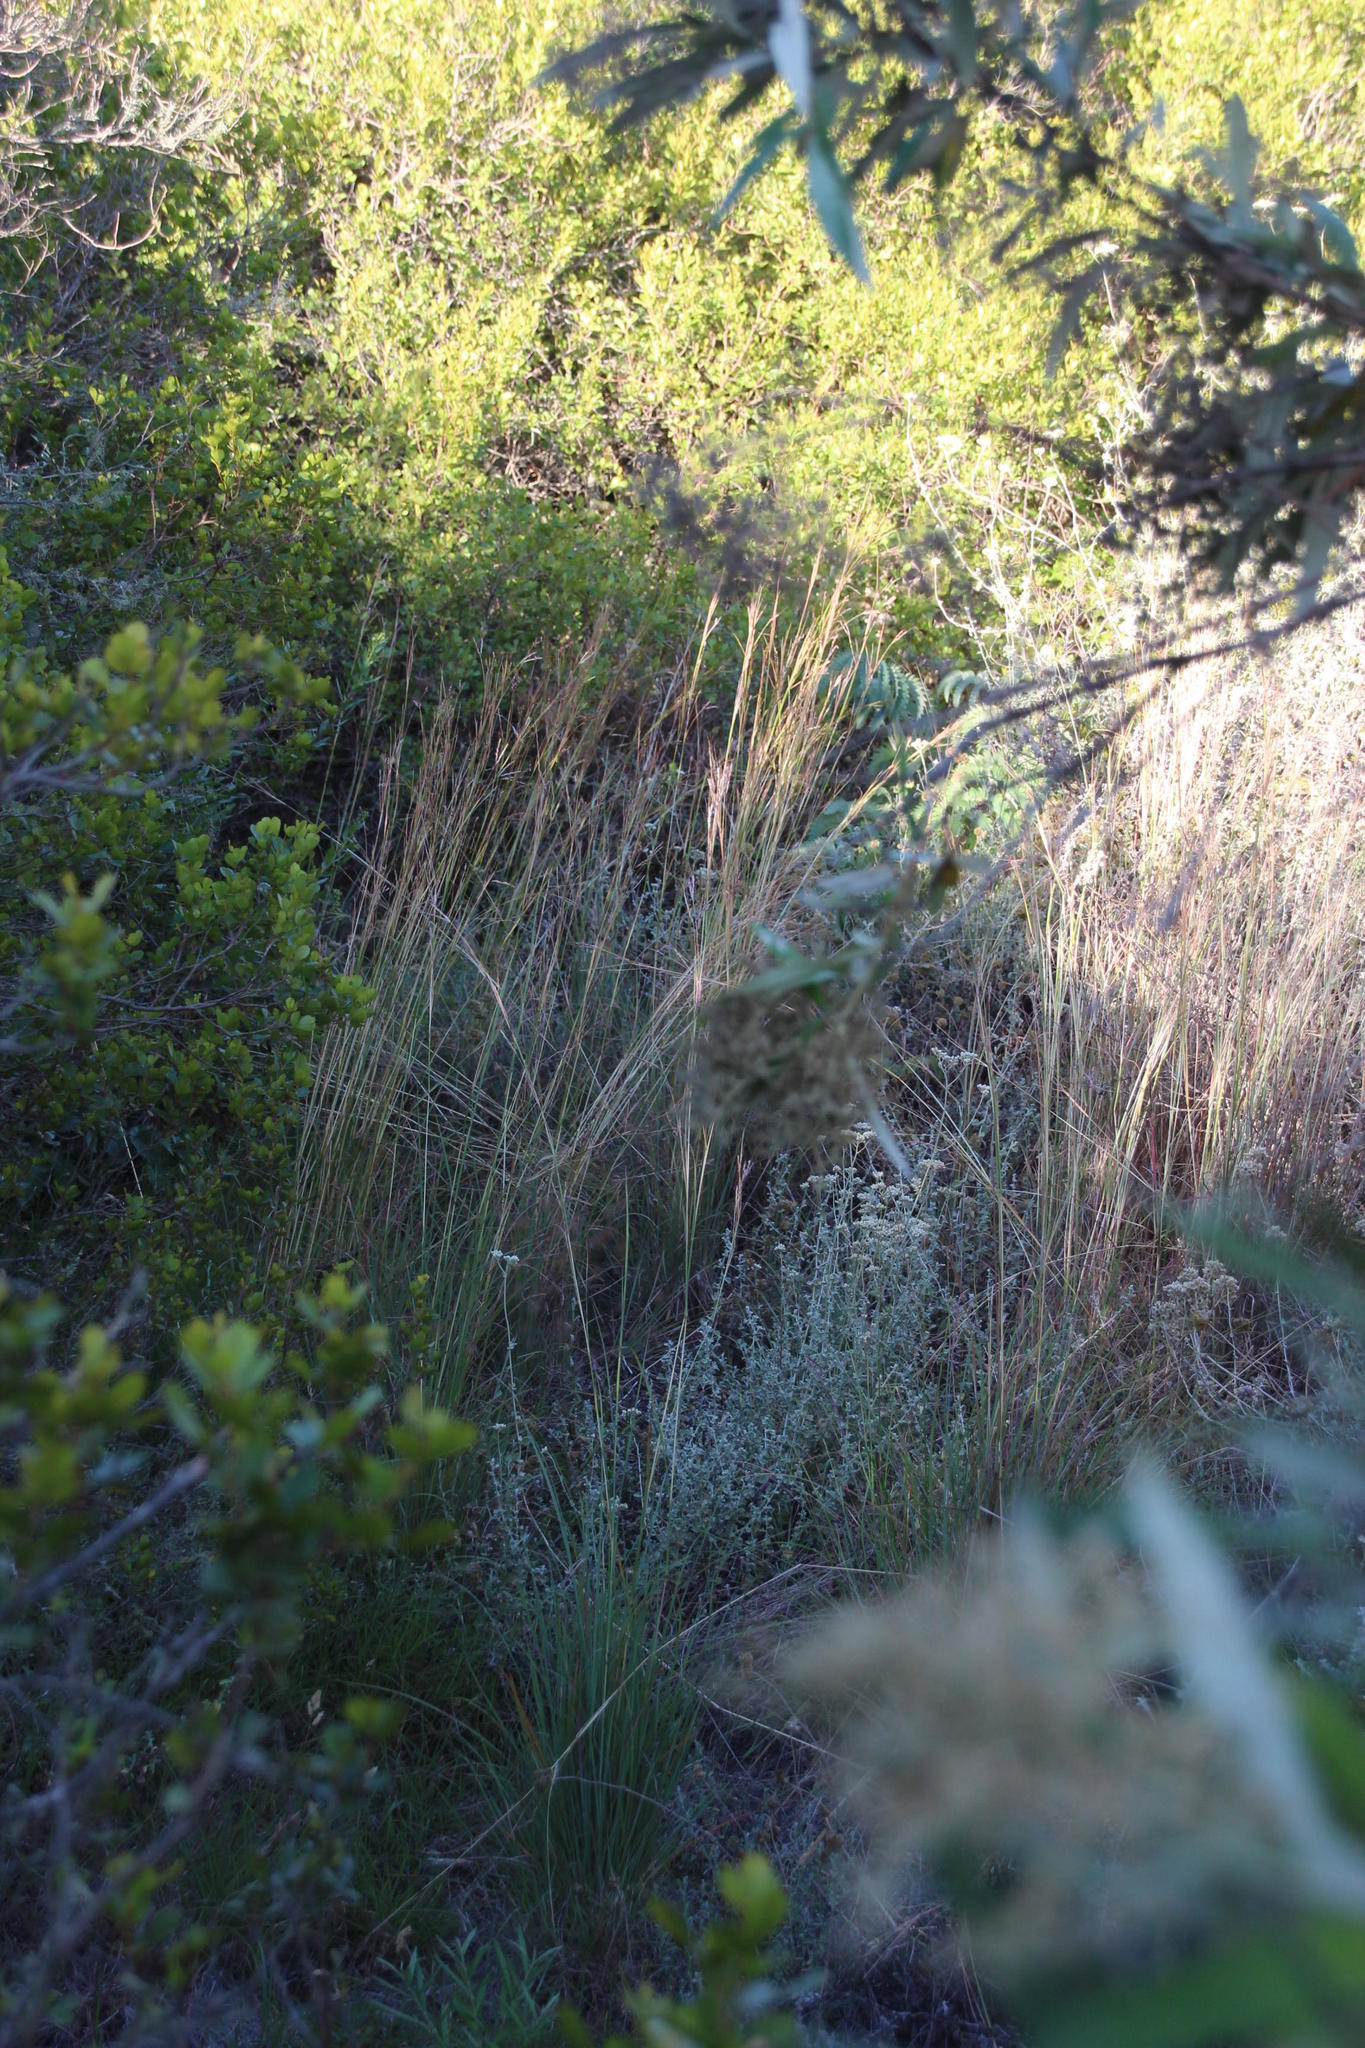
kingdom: Plantae
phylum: Tracheophyta
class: Liliopsida
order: Poales
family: Poaceae
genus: Hyparrhenia
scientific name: Hyparrhenia hirta
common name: Thatching grass
